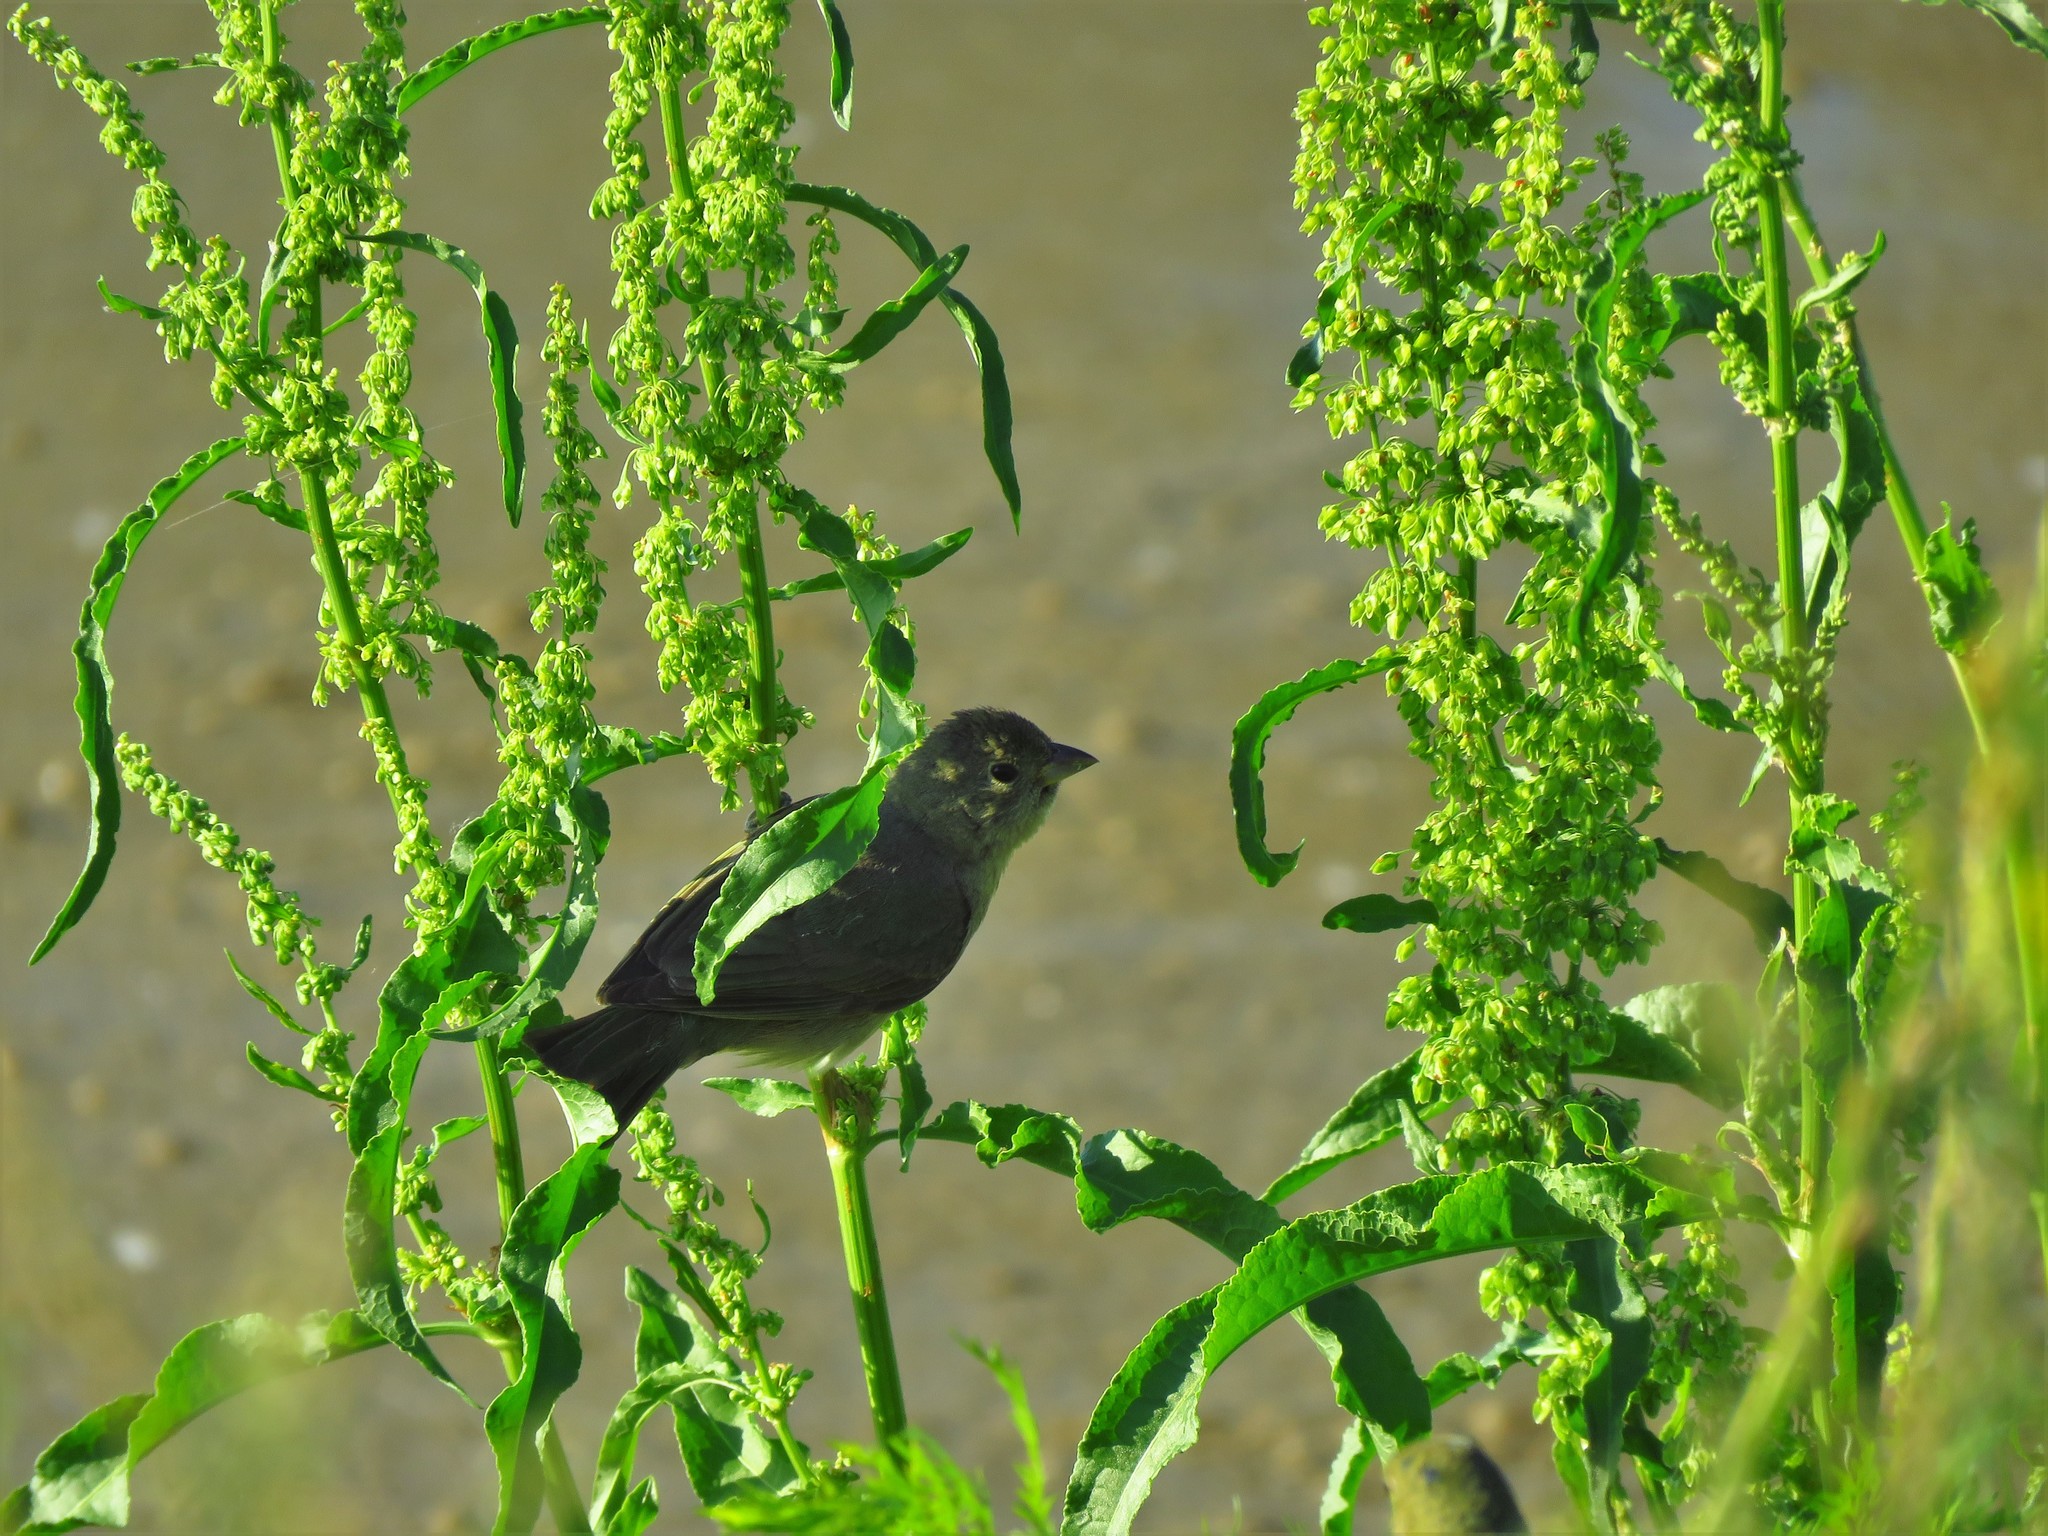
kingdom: Animalia
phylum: Chordata
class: Aves
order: Passeriformes
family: Cardinalidae
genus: Passerina
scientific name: Passerina ciris
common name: Painted bunting
